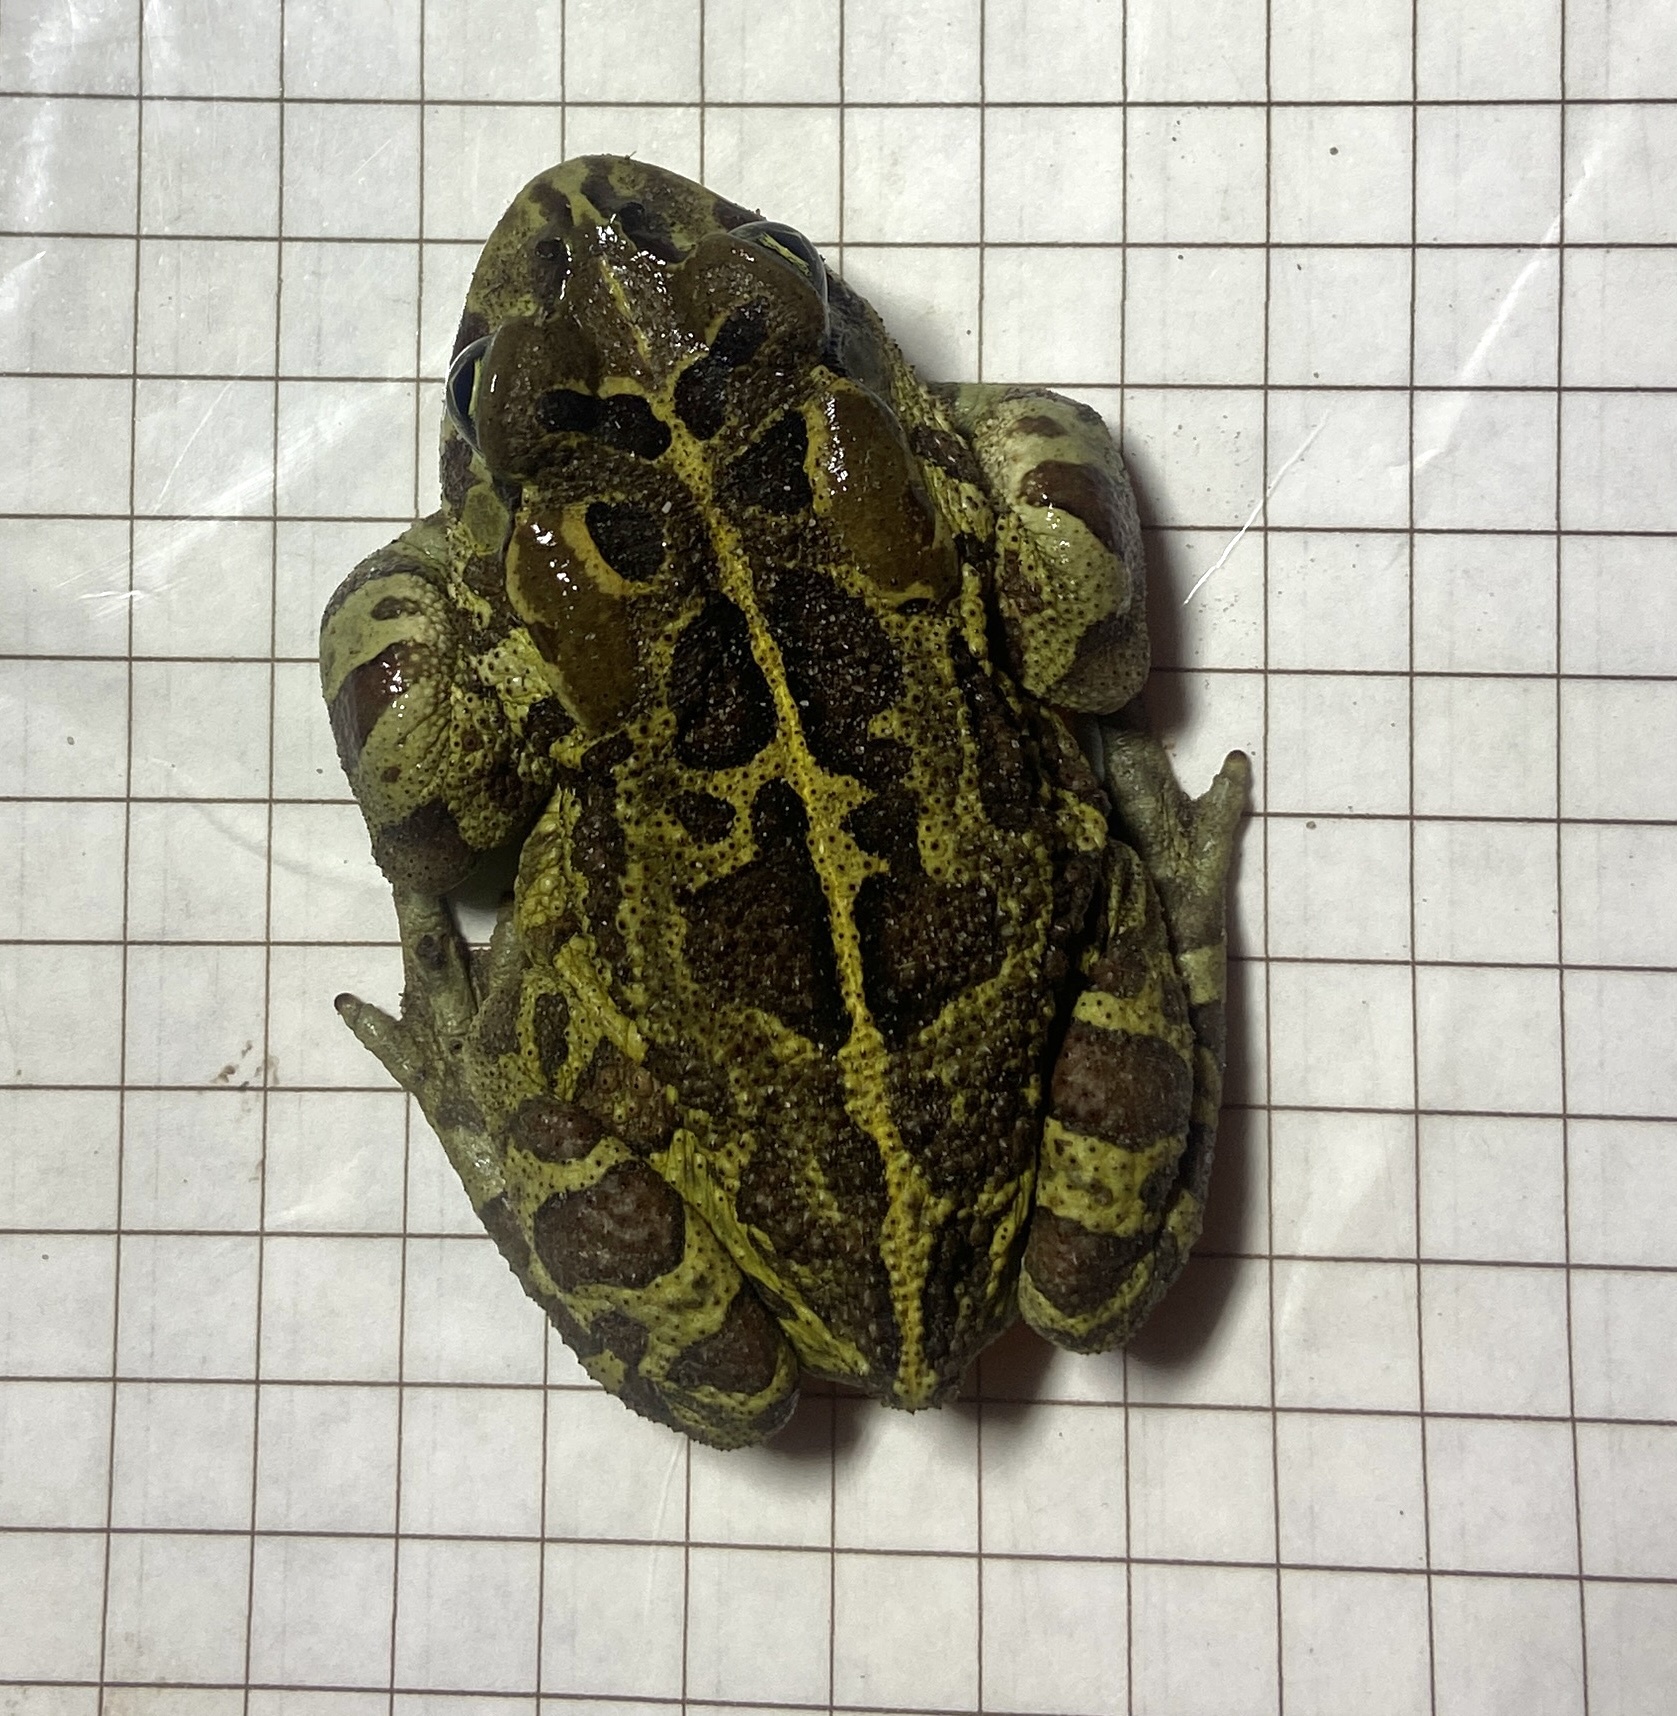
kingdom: Animalia
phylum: Chordata
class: Amphibia
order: Anura
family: Bufonidae
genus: Sclerophrys
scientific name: Sclerophrys pantherina
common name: Panther toad
